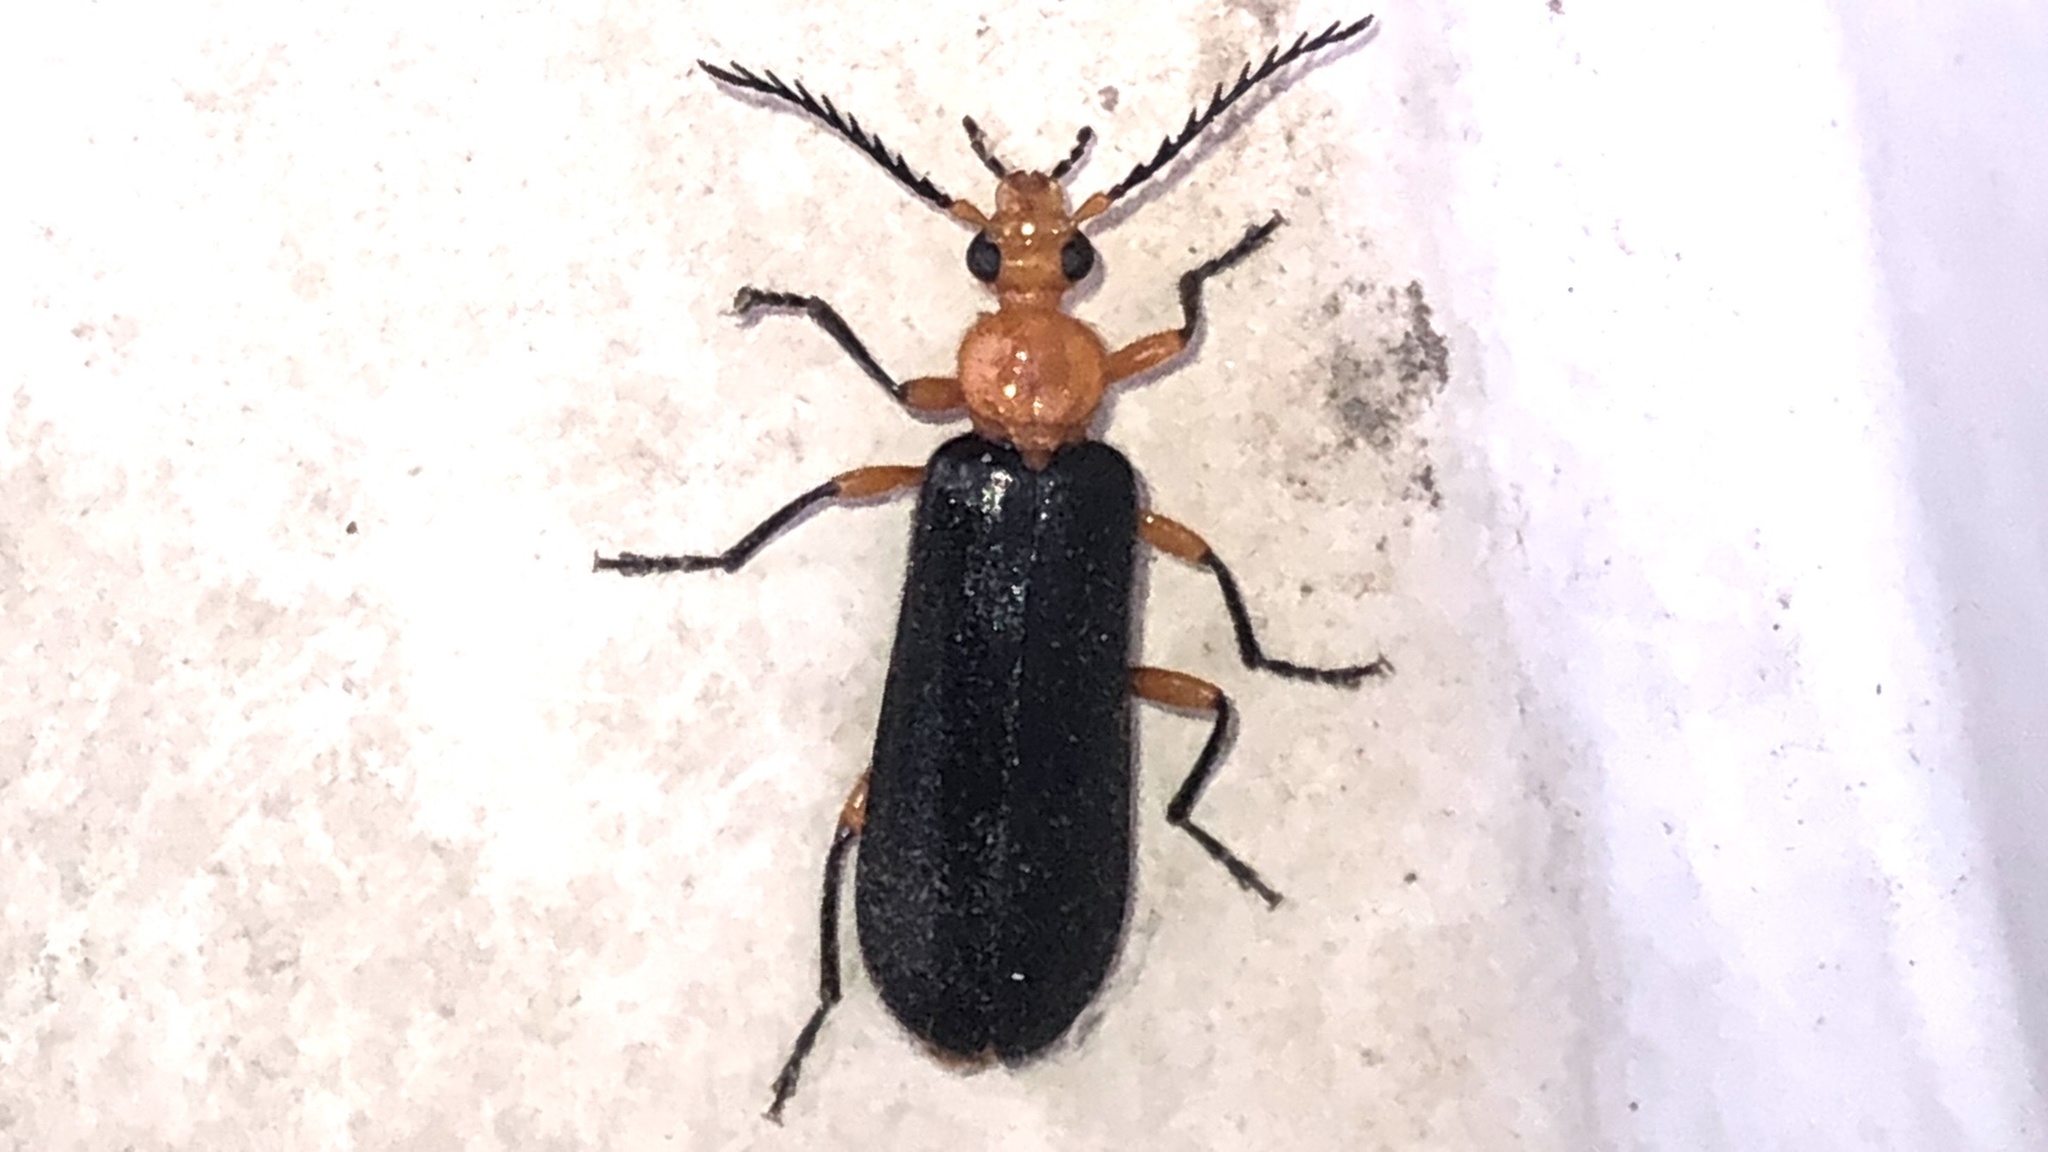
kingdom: Animalia
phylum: Arthropoda
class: Insecta
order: Coleoptera
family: Pyrochroidae
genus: Neopyrochroa
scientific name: Neopyrochroa femoralis
